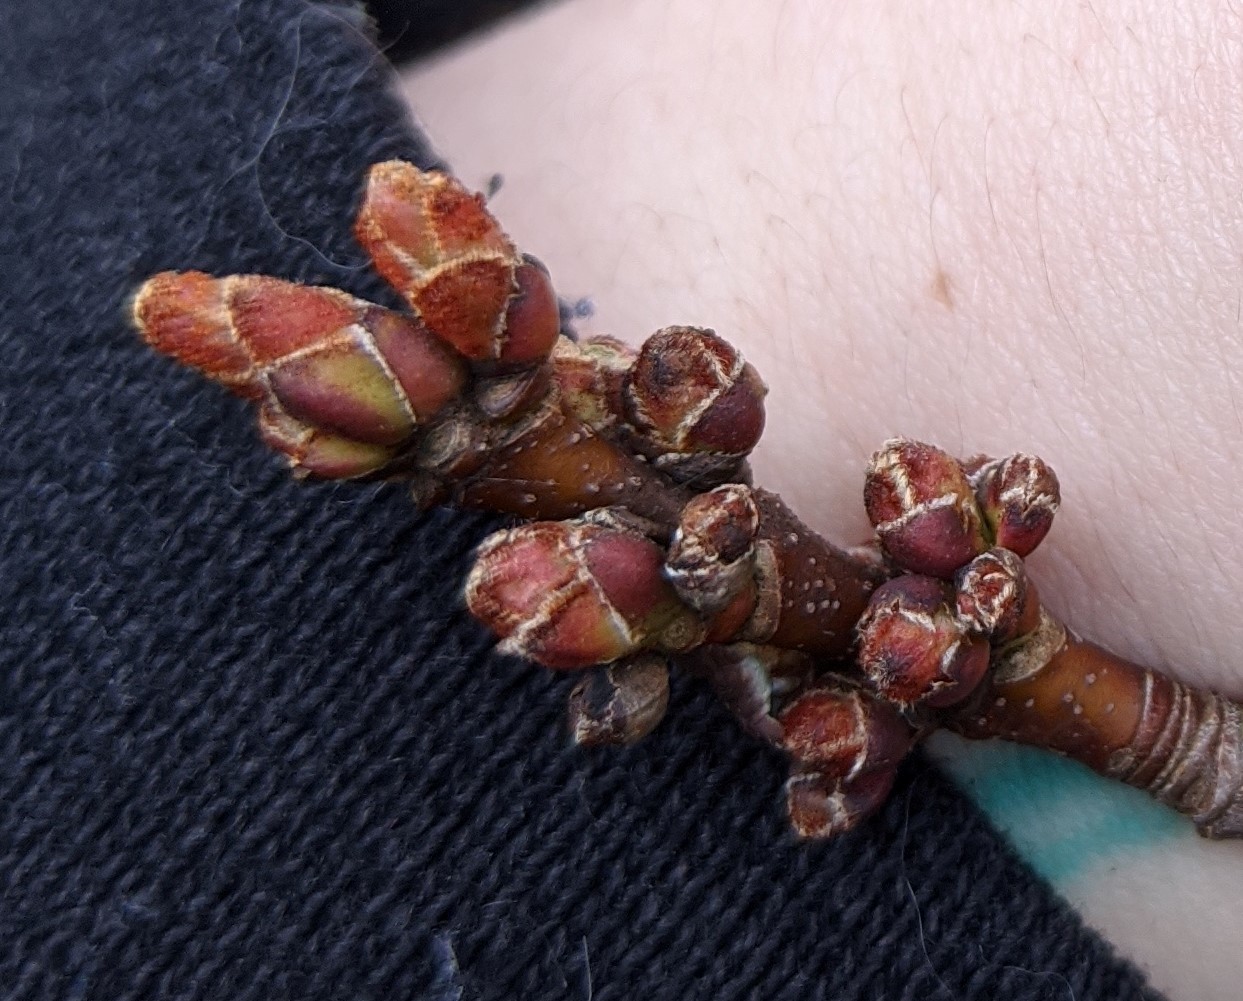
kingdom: Plantae
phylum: Tracheophyta
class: Magnoliopsida
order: Sapindales
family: Sapindaceae
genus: Acer
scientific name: Acer rubrum
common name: Red maple
